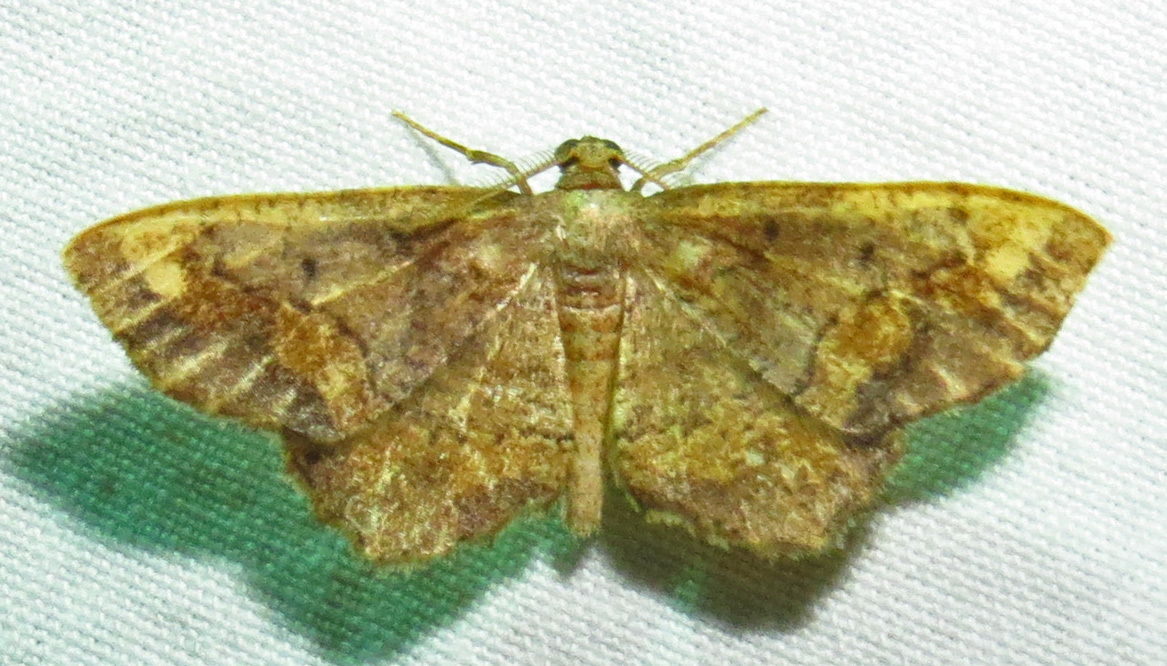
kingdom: Animalia
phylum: Arthropoda
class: Insecta
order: Lepidoptera
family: Geometridae
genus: Hypagyrtis
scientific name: Hypagyrtis unipunctata
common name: One-spotted variant
